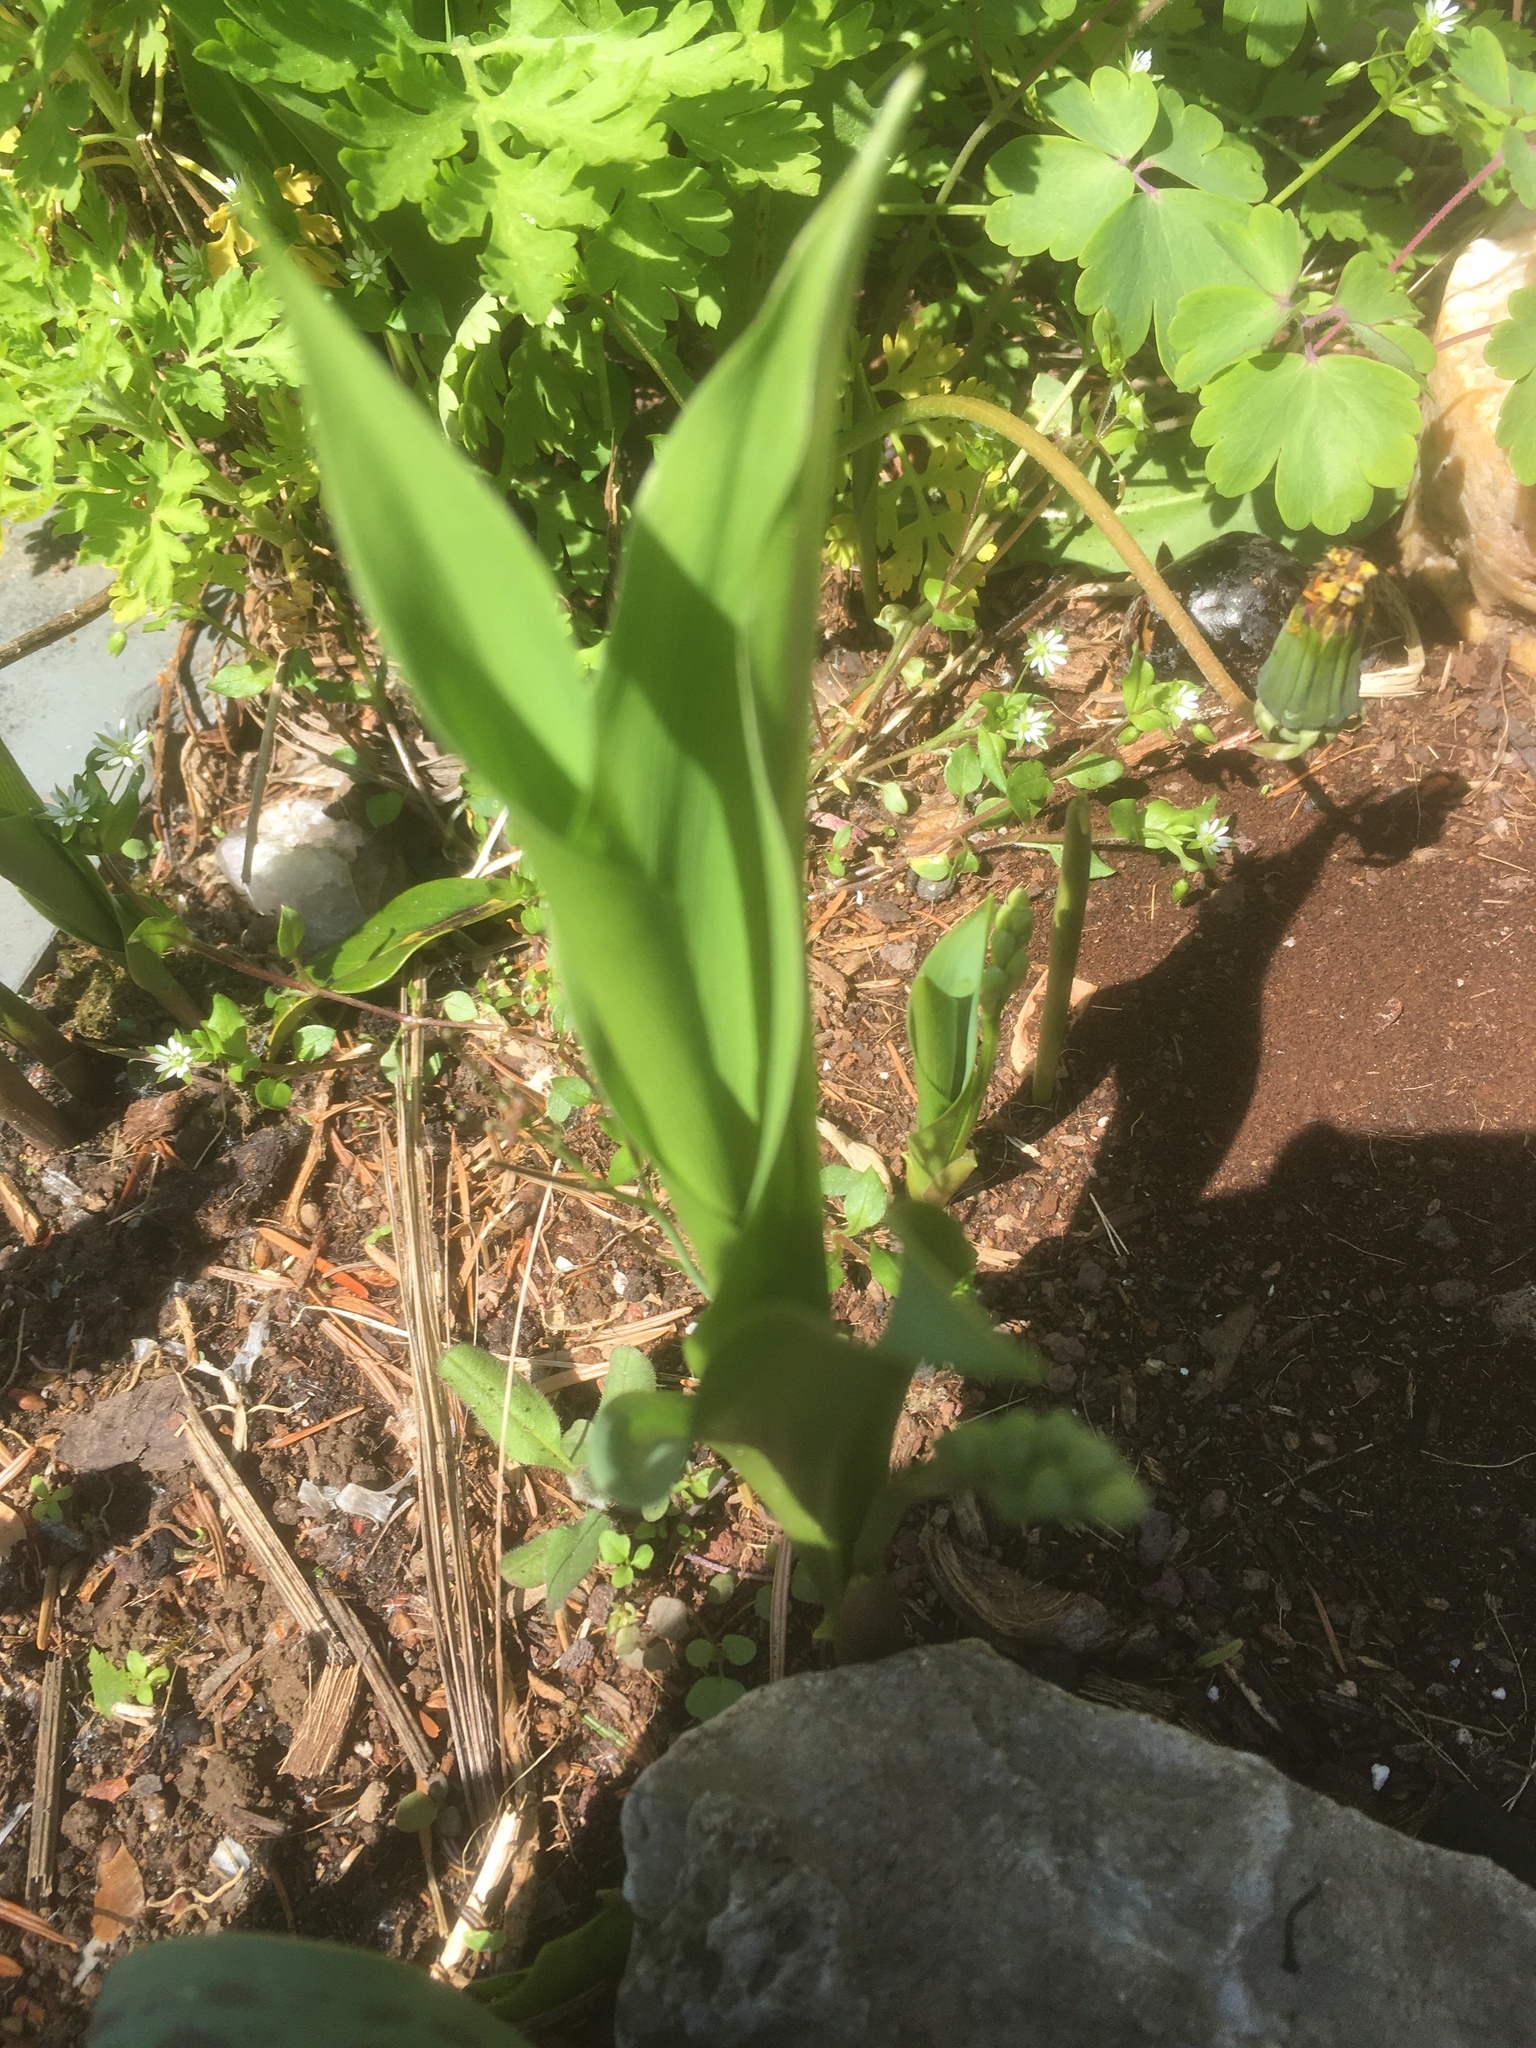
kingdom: Plantae
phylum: Tracheophyta
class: Liliopsida
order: Asparagales
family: Asparagaceae
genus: Convallaria
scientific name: Convallaria majalis
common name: Lily-of-the-valley
